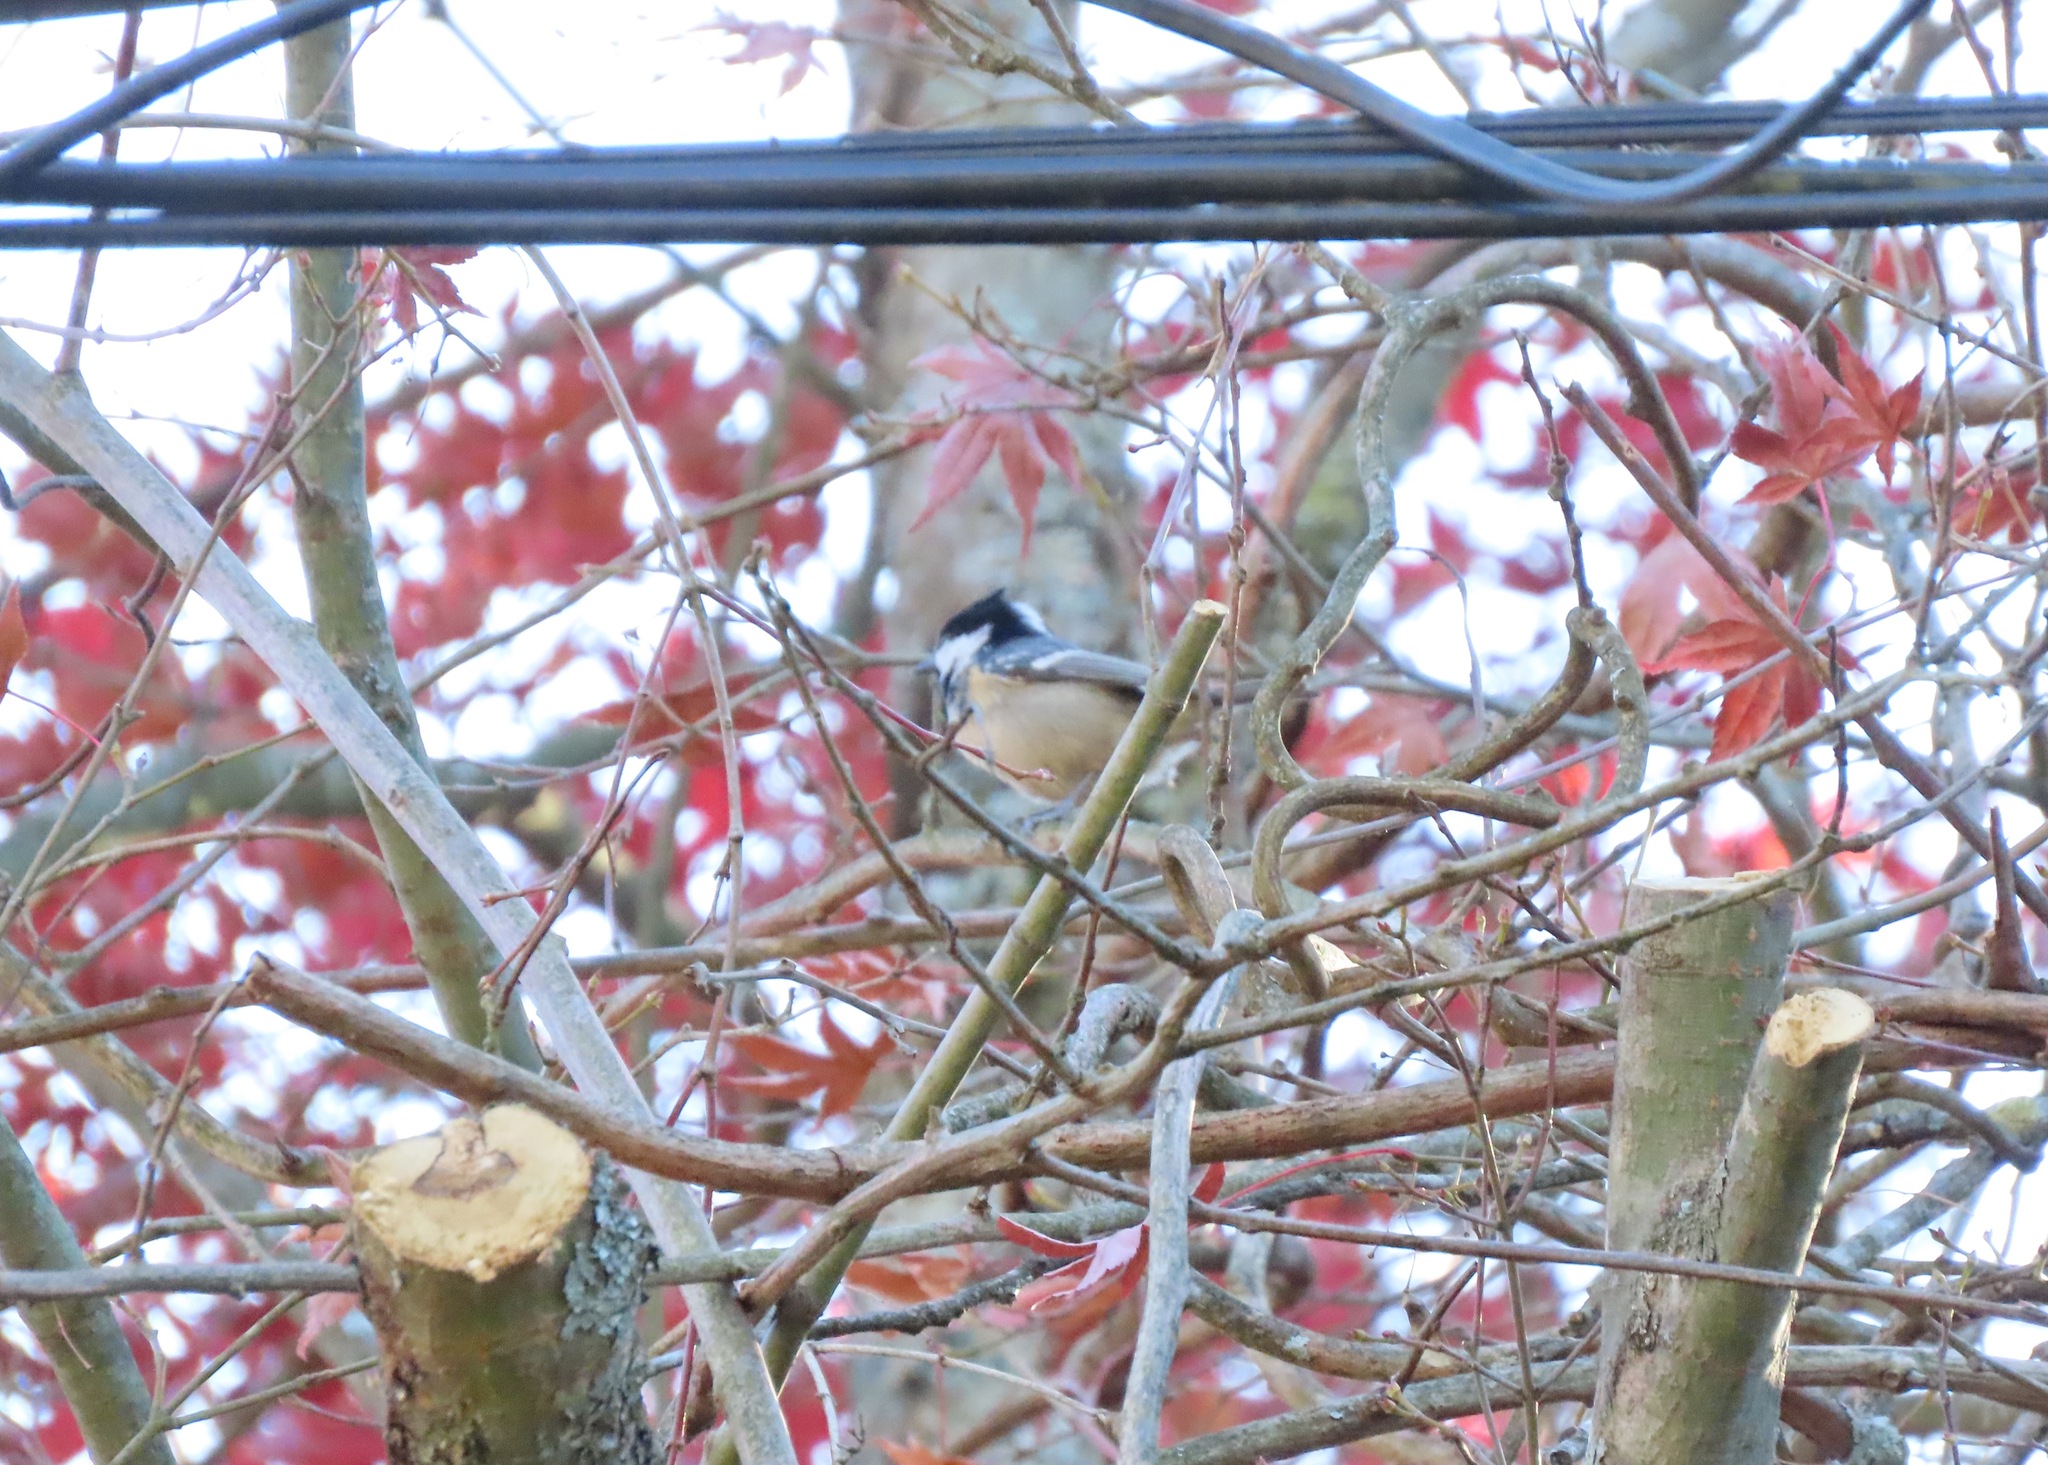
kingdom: Animalia
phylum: Chordata
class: Aves
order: Passeriformes
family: Paridae
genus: Periparus
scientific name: Periparus ater
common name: Coal tit
